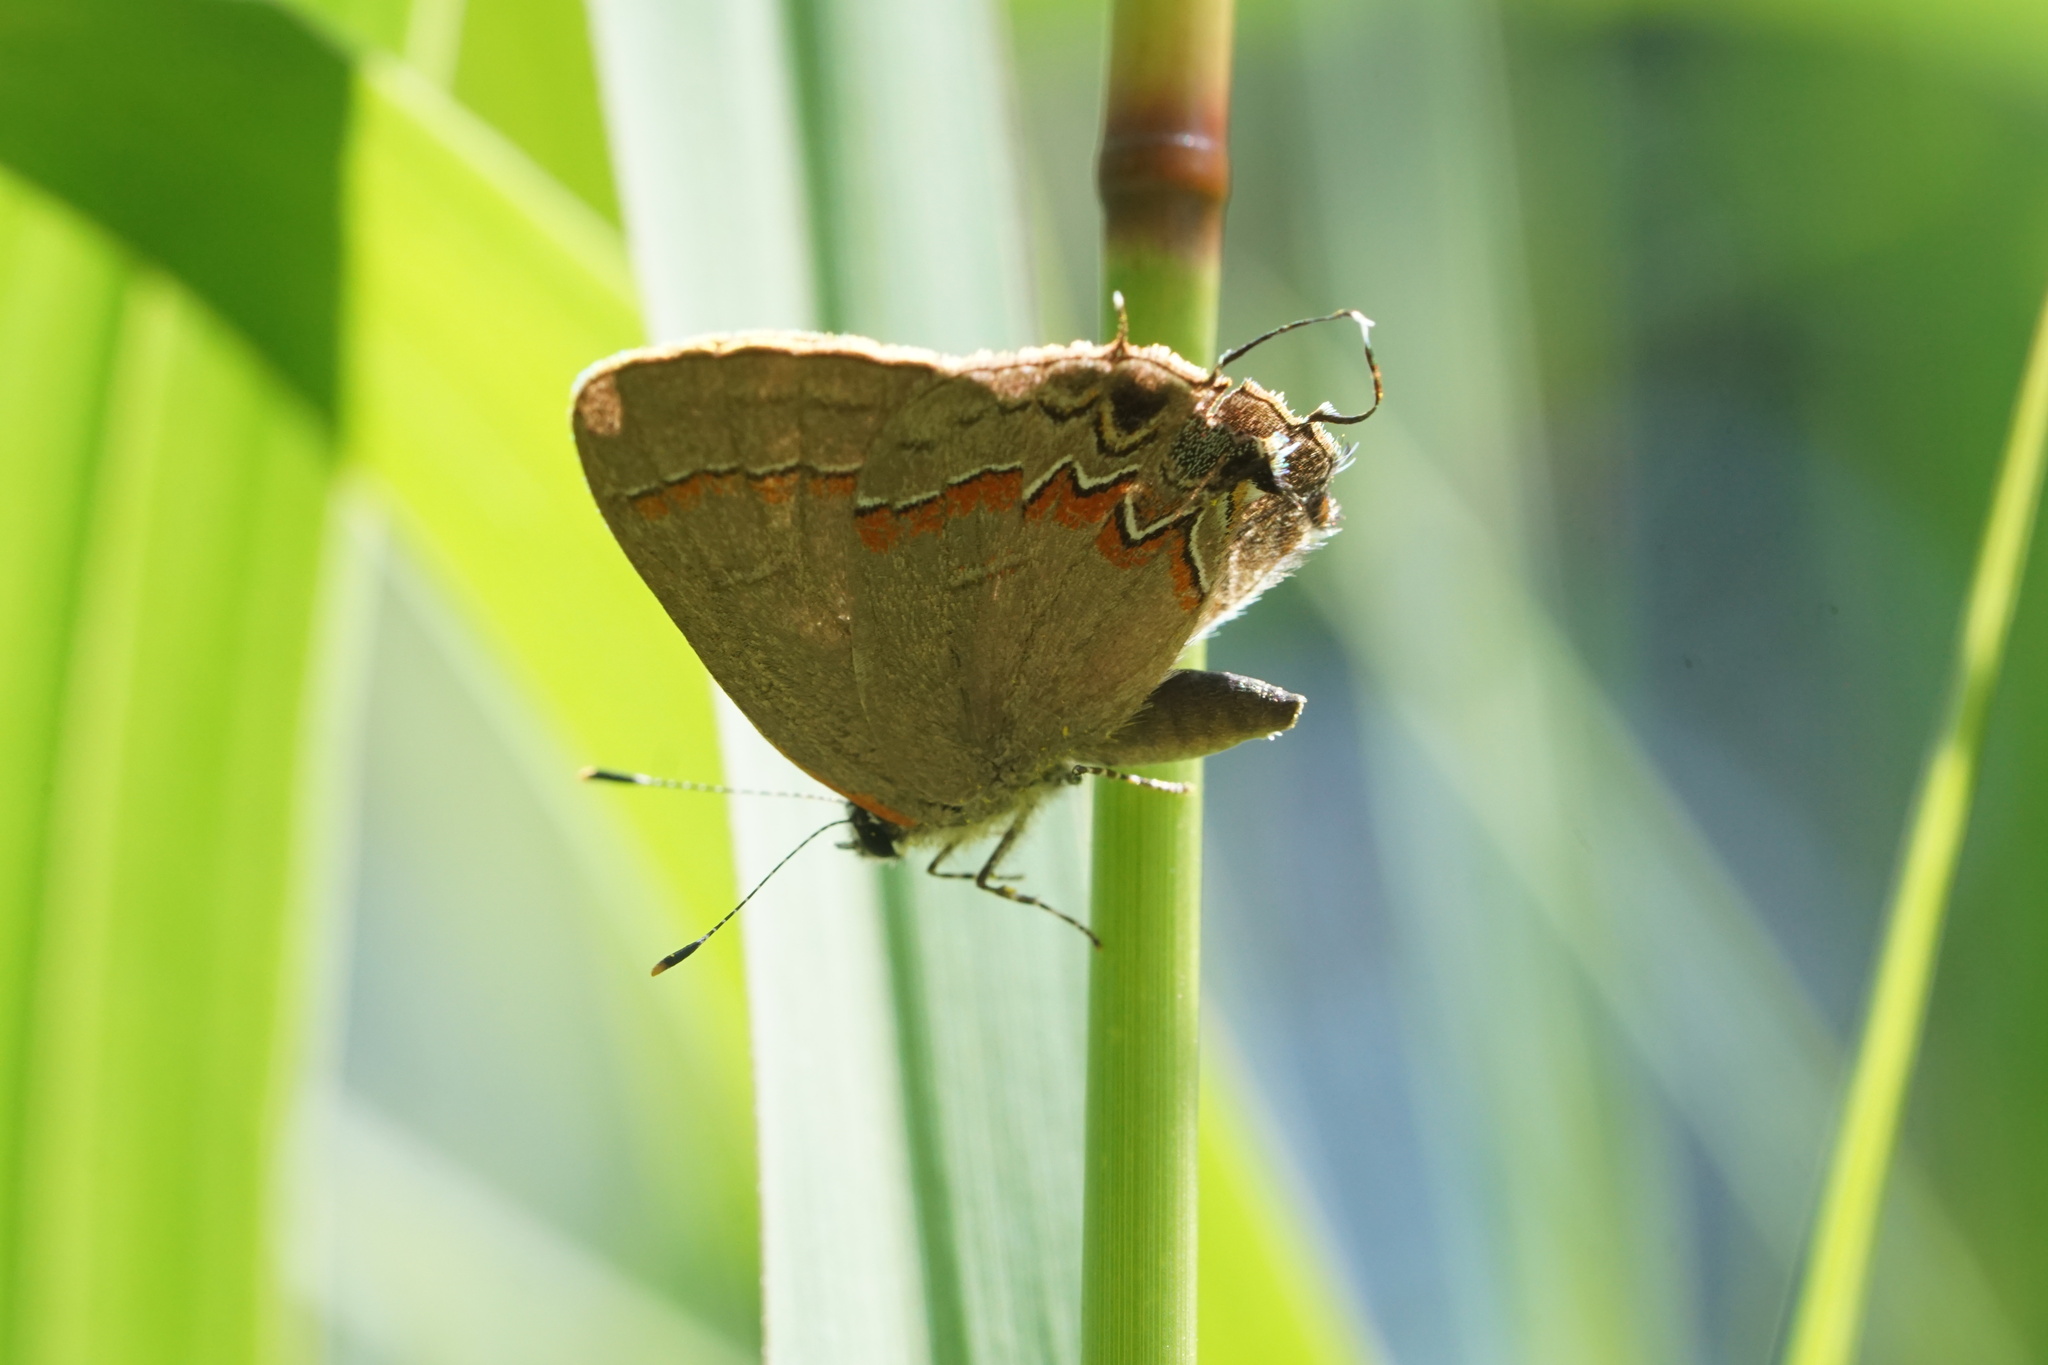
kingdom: Animalia
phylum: Arthropoda
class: Insecta
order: Lepidoptera
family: Lycaenidae
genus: Calycopis
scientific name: Calycopis cecrops
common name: Red-banded hairstreak
